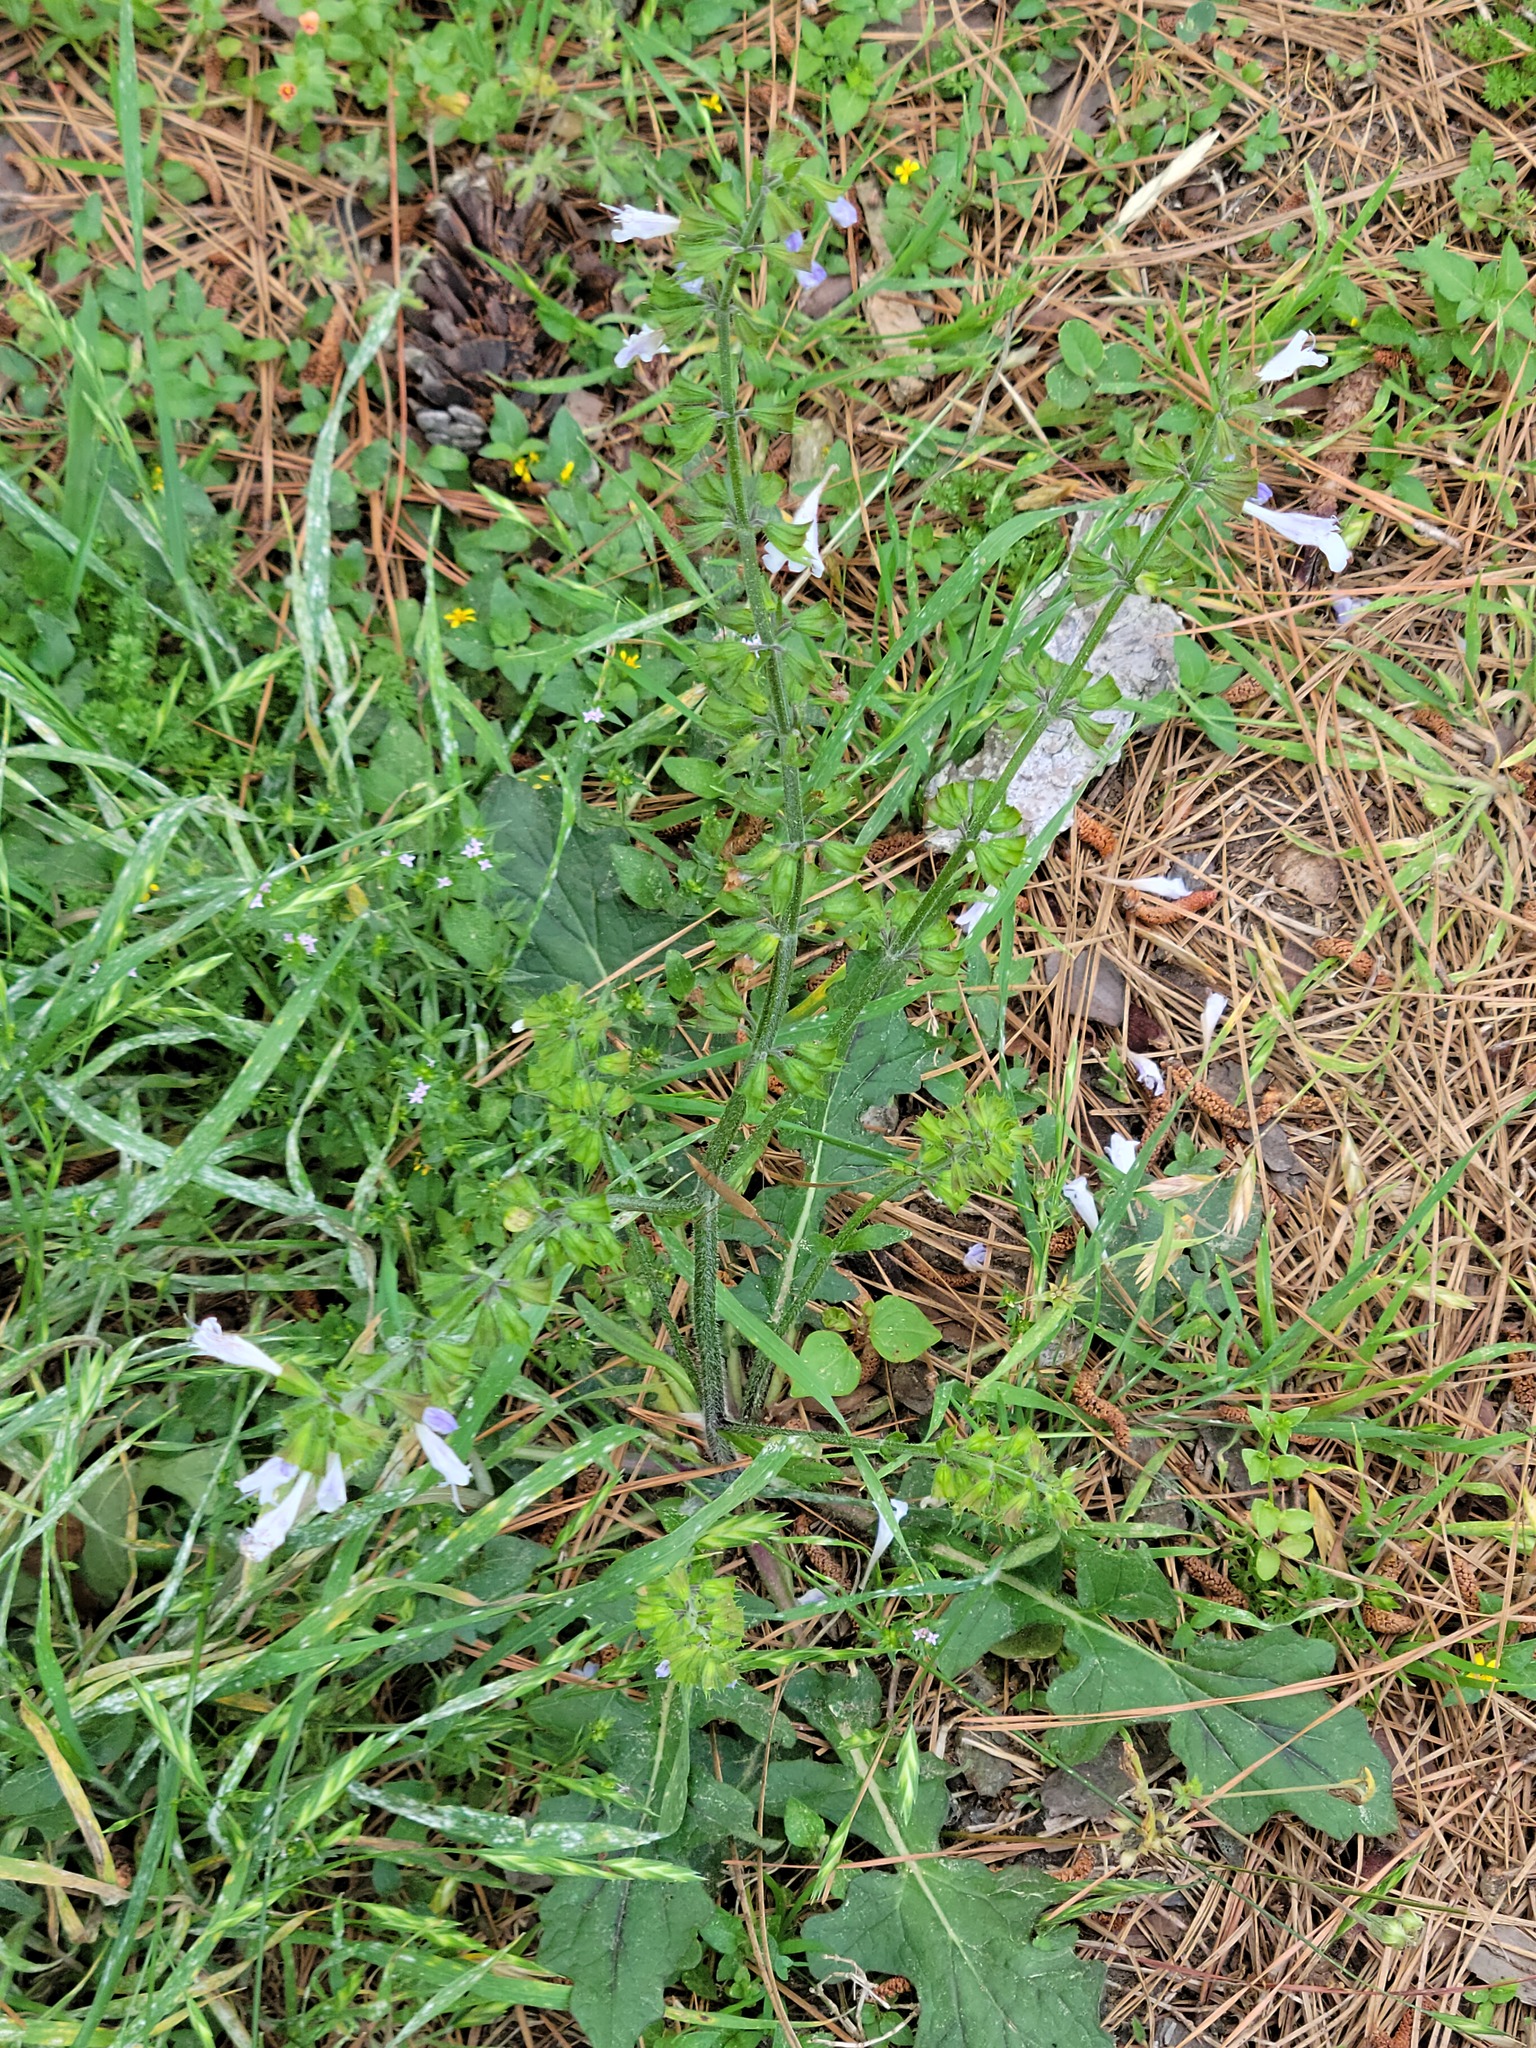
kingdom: Plantae
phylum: Tracheophyta
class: Magnoliopsida
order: Lamiales
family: Lamiaceae
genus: Salvia
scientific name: Salvia lyrata
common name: Cancerweed
